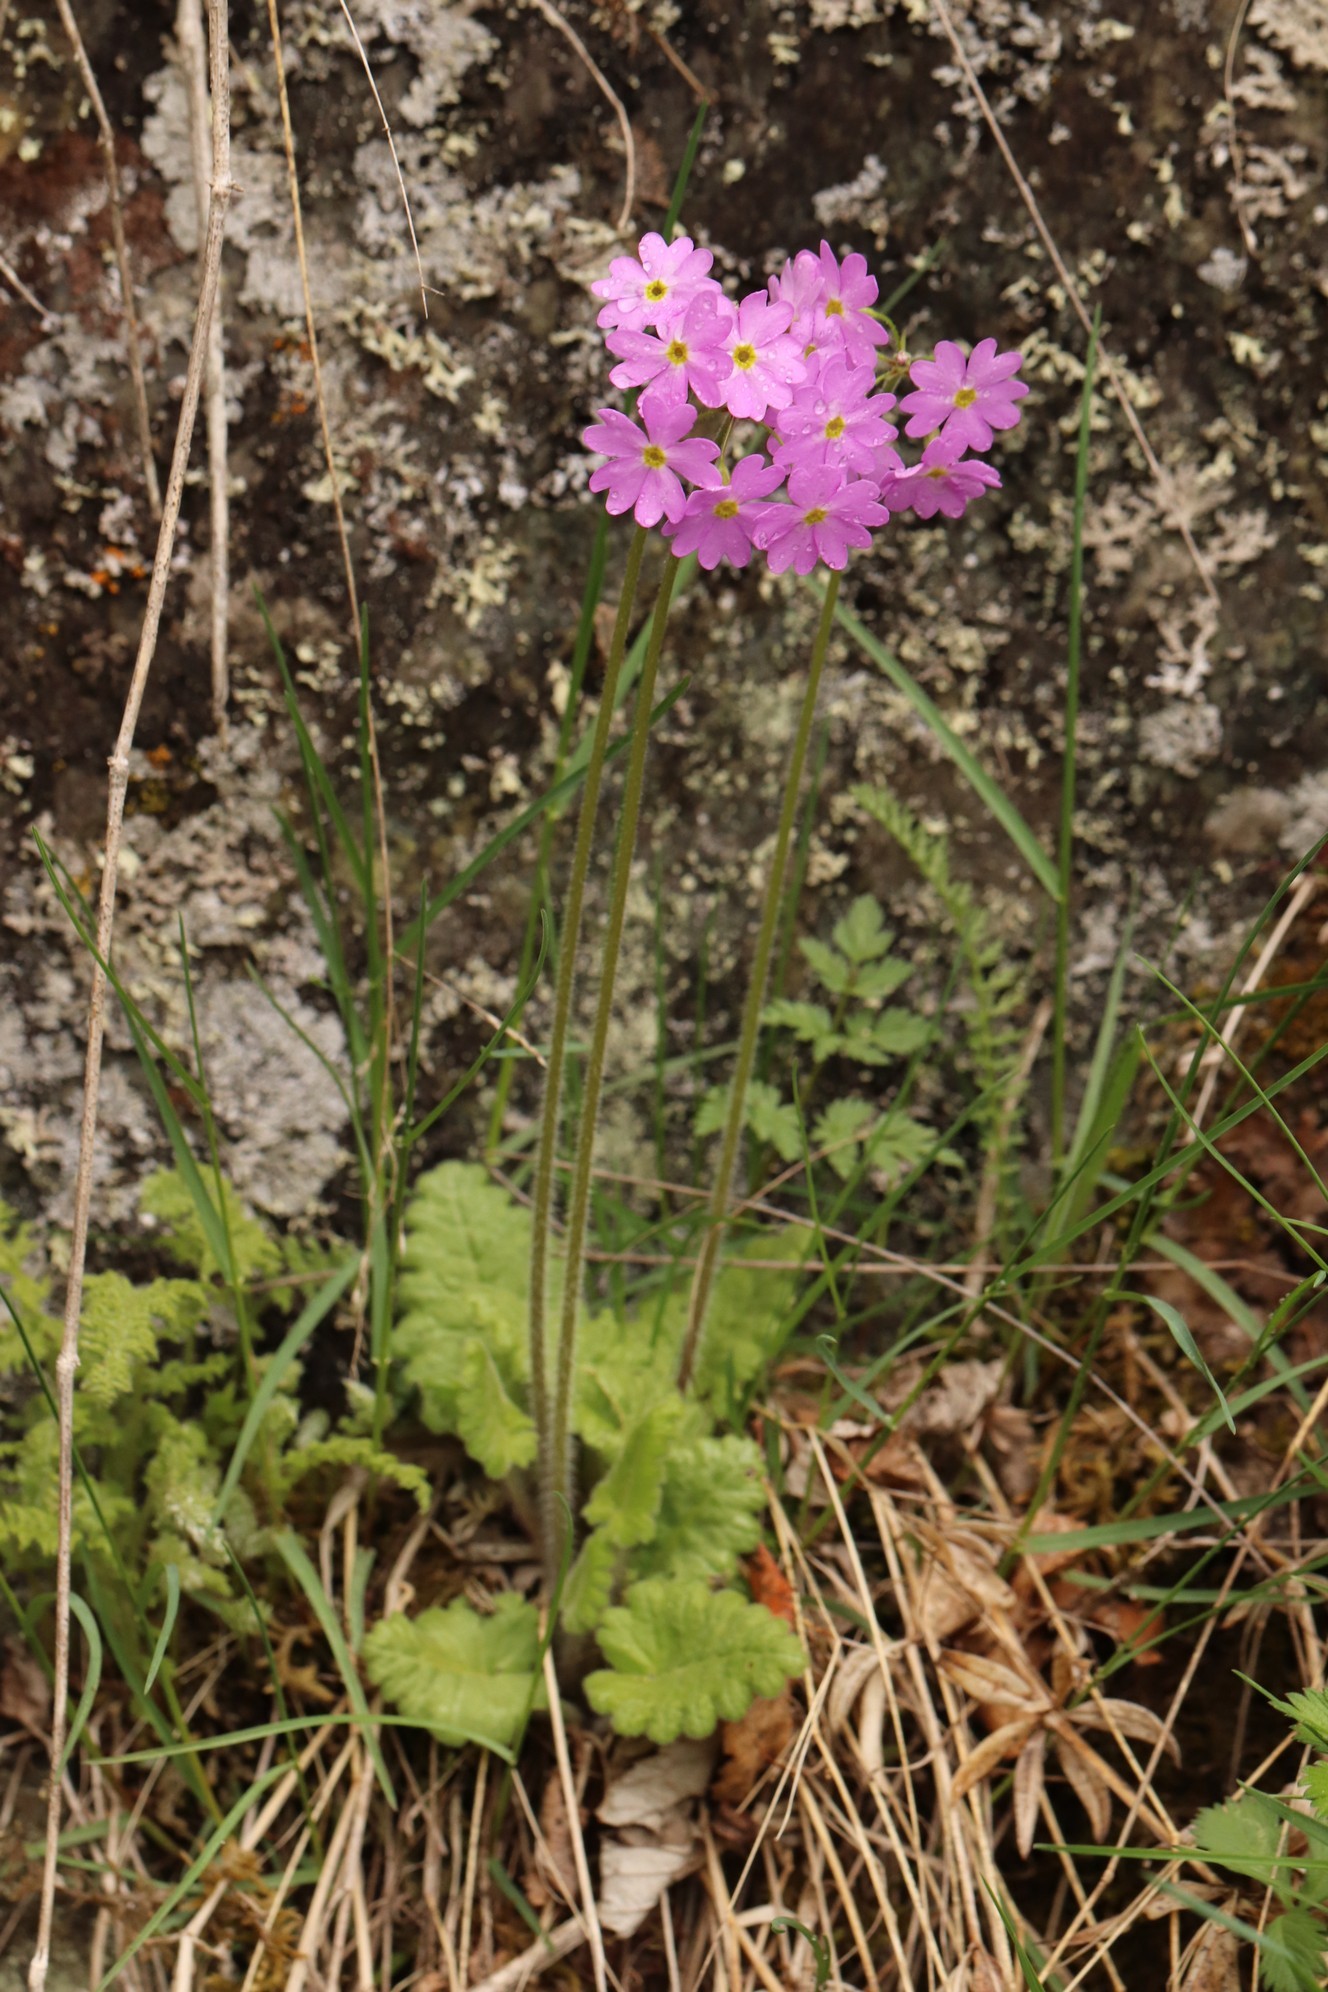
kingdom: Plantae
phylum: Tracheophyta
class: Magnoliopsida
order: Ericales
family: Primulaceae
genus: Primula
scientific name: Primula cortusoides
